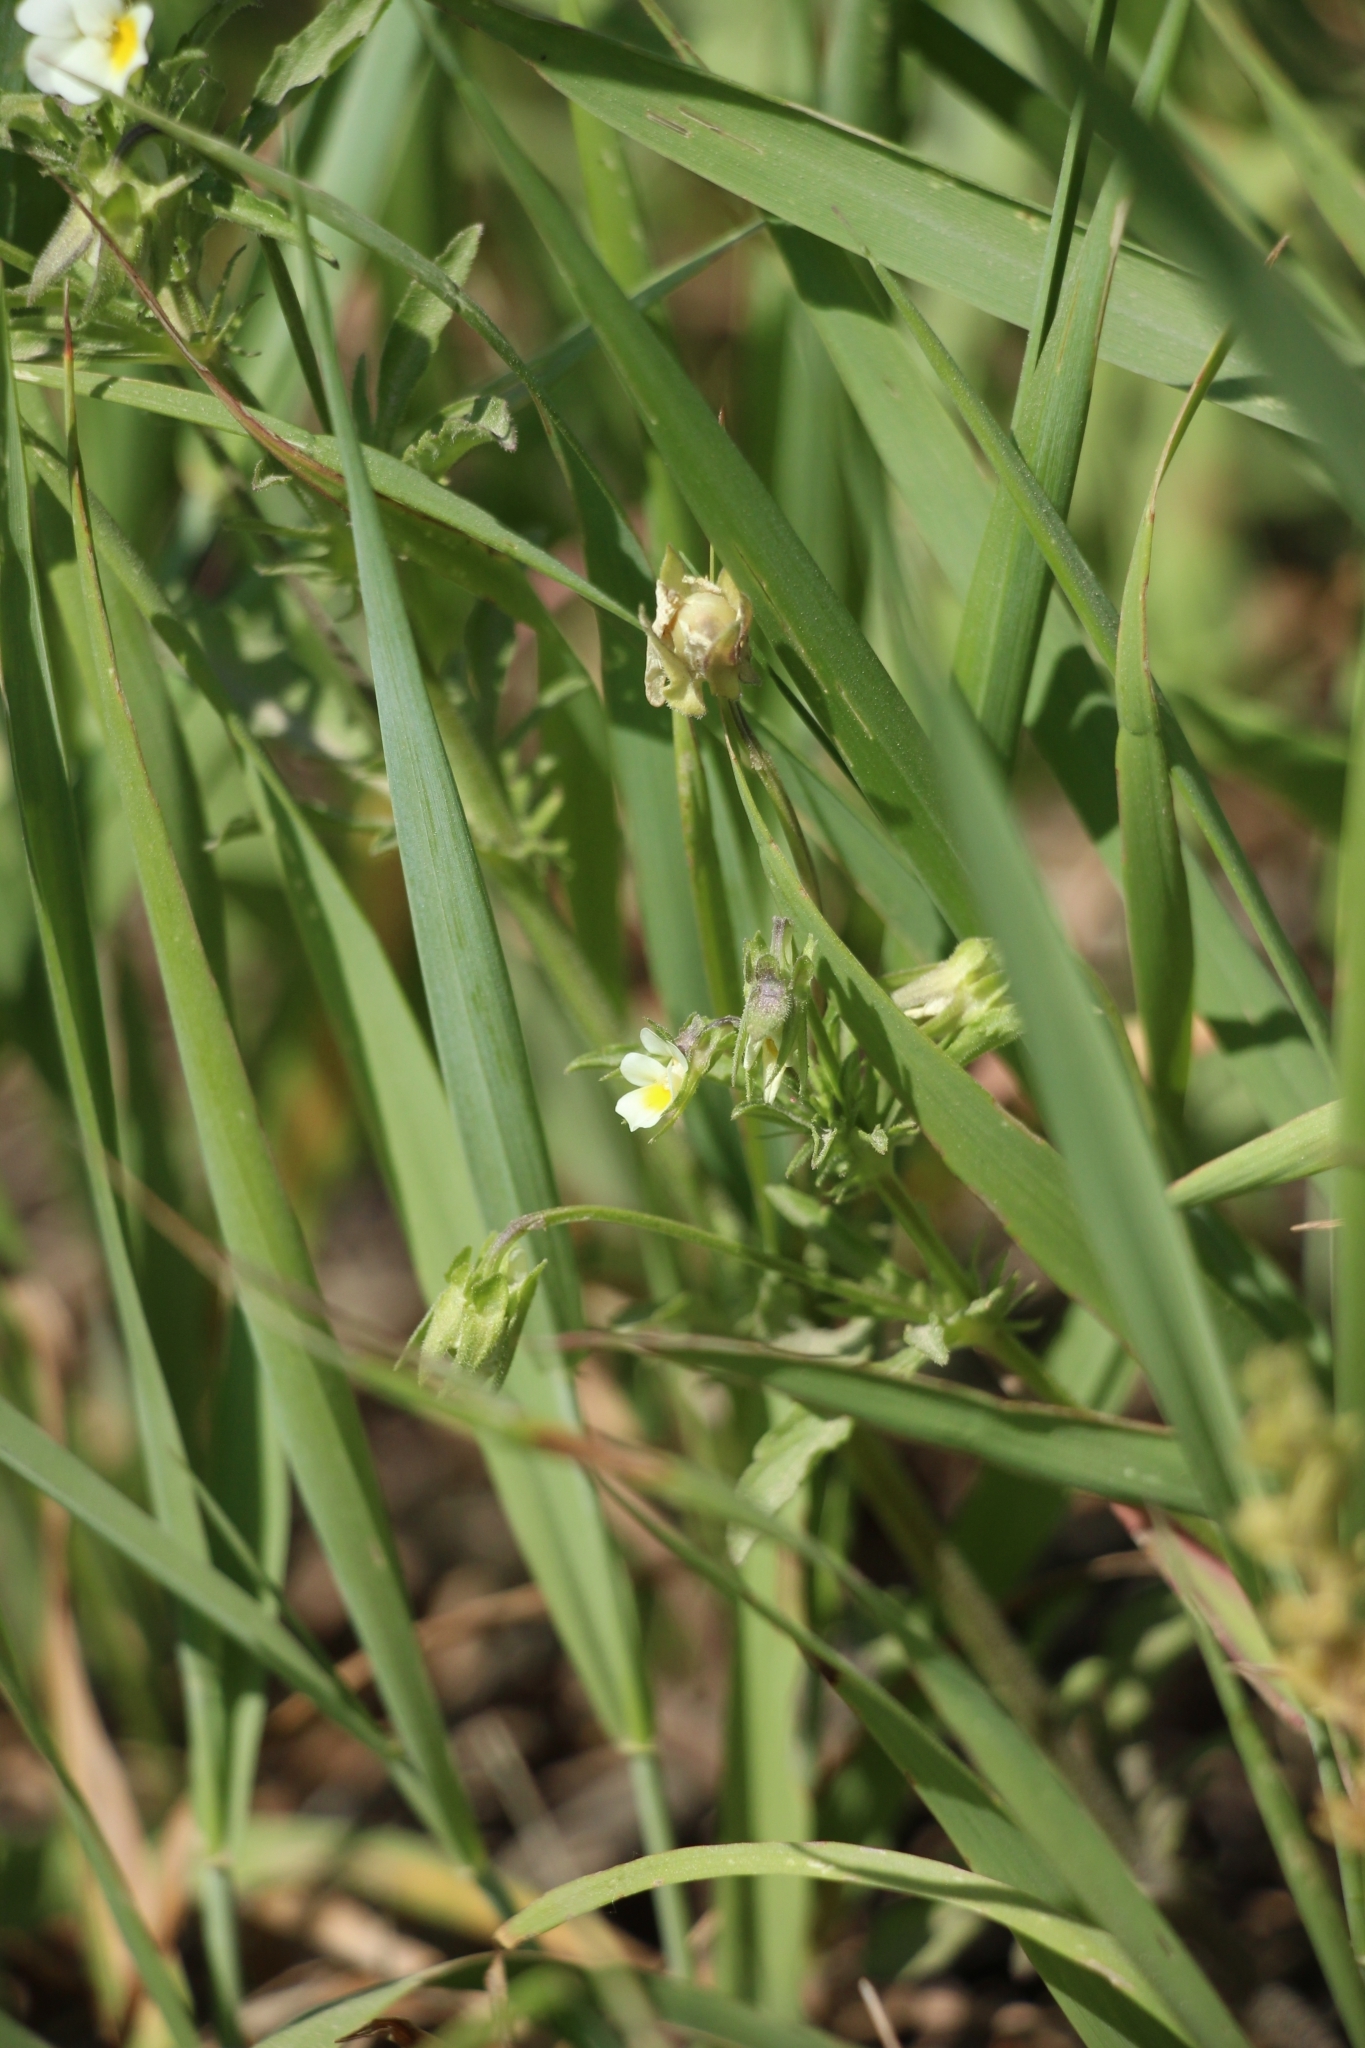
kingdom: Plantae
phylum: Tracheophyta
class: Magnoliopsida
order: Malpighiales
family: Violaceae
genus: Viola
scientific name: Viola arvensis
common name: Field pansy
